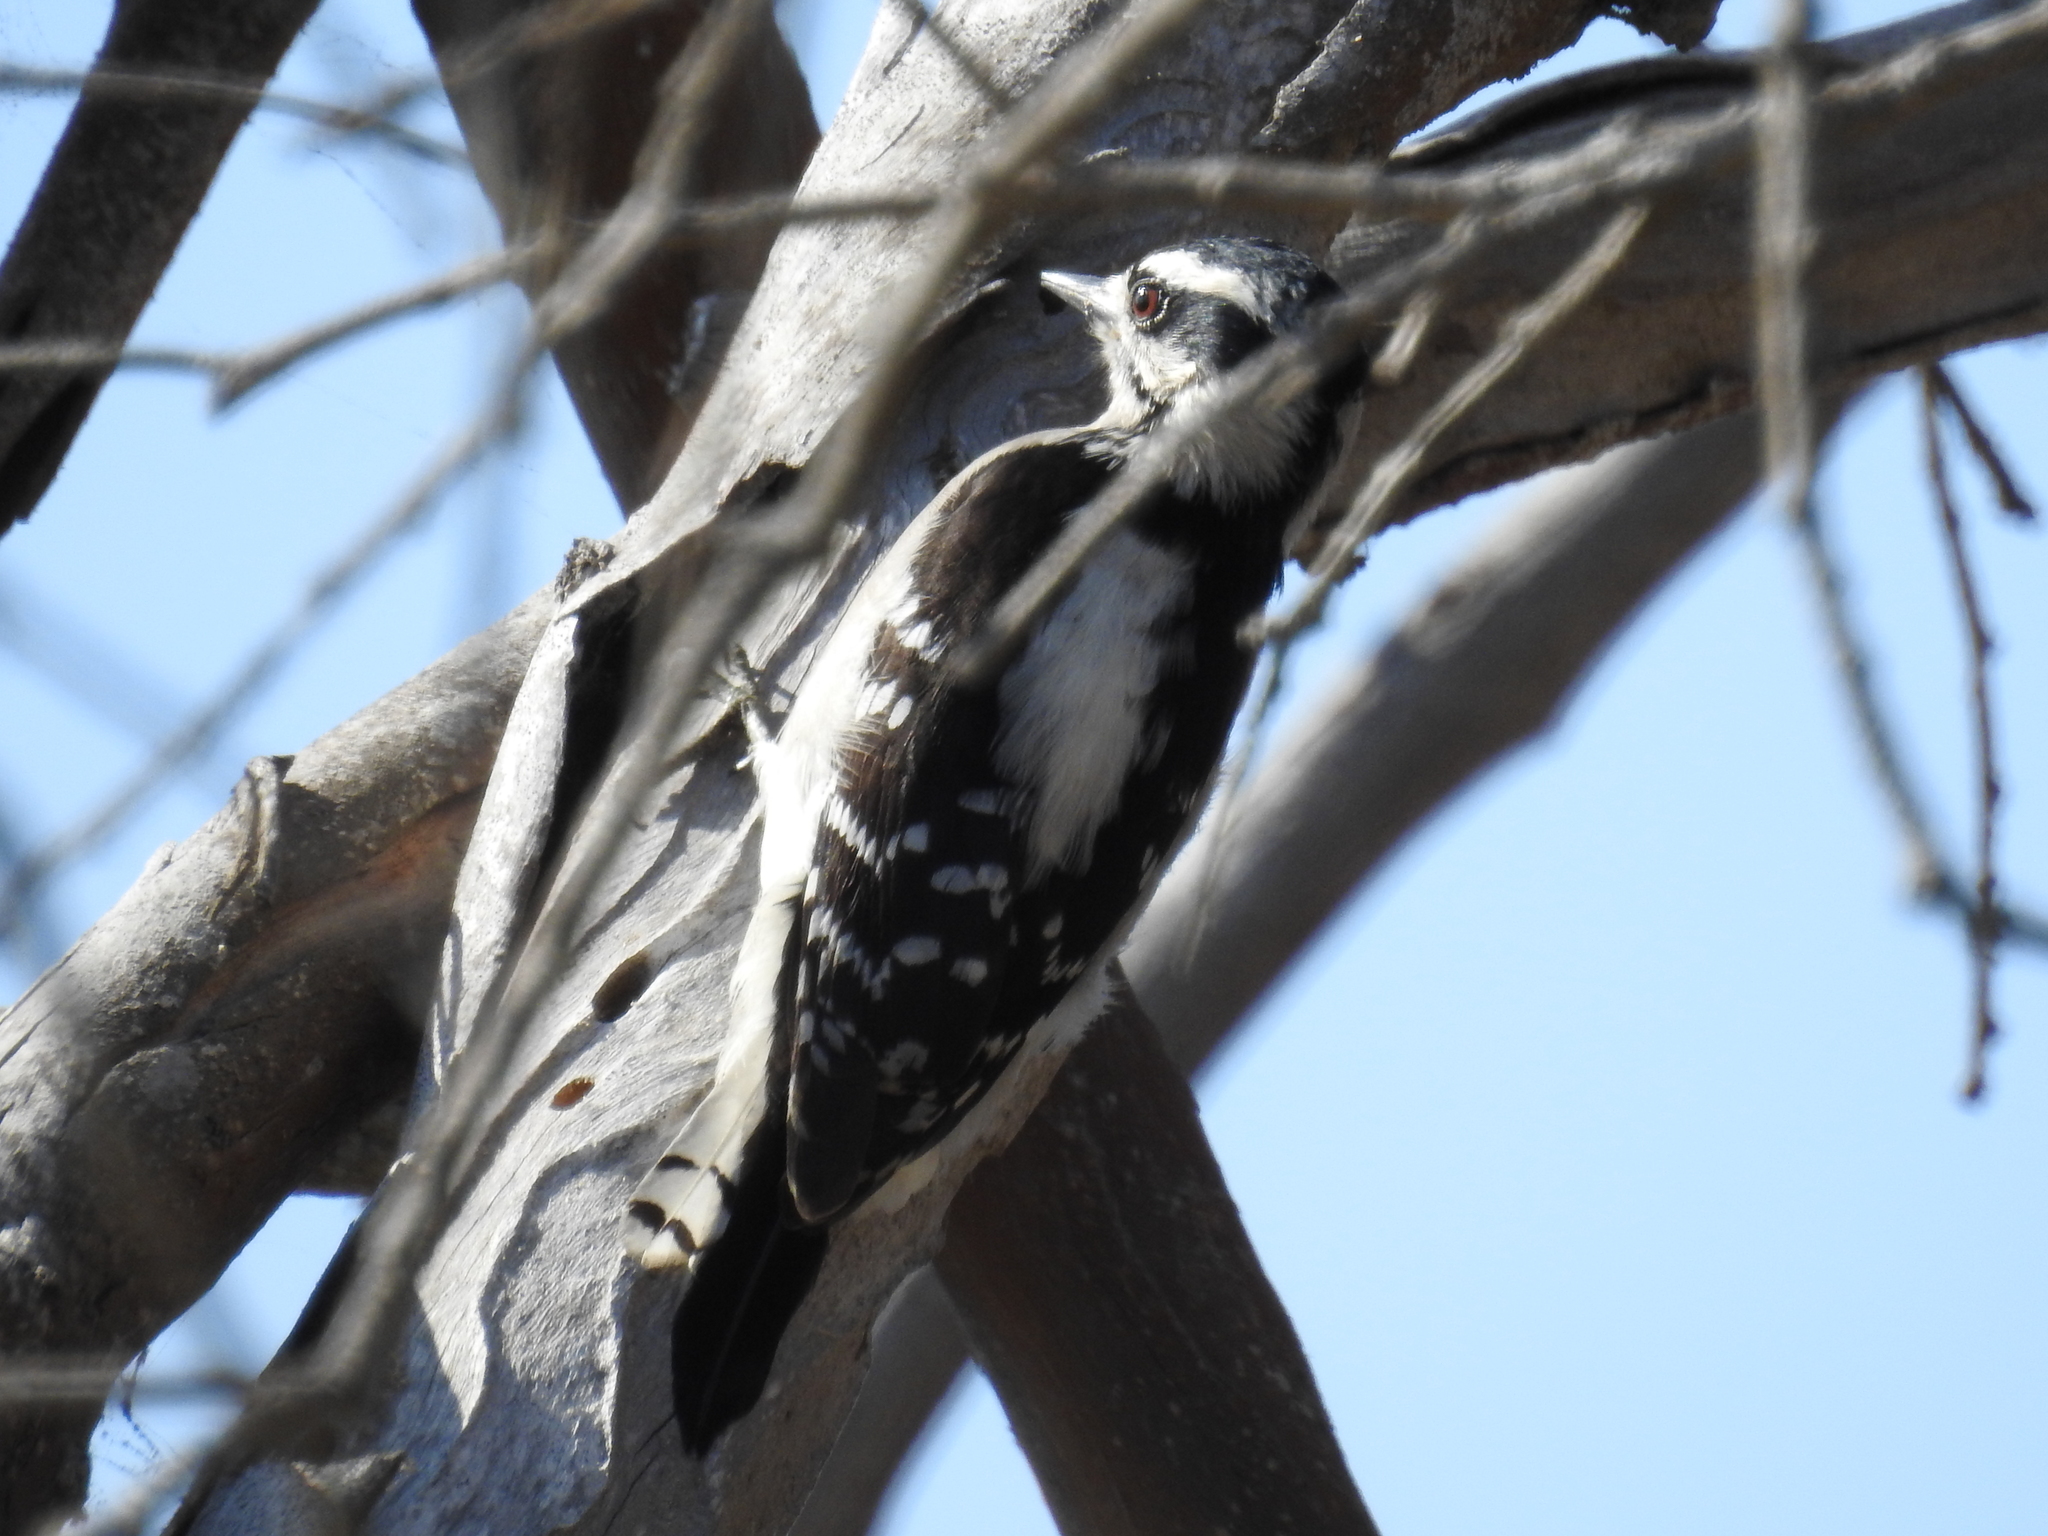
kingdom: Animalia
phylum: Chordata
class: Aves
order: Piciformes
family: Picidae
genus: Dryobates
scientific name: Dryobates pubescens
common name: Downy woodpecker
